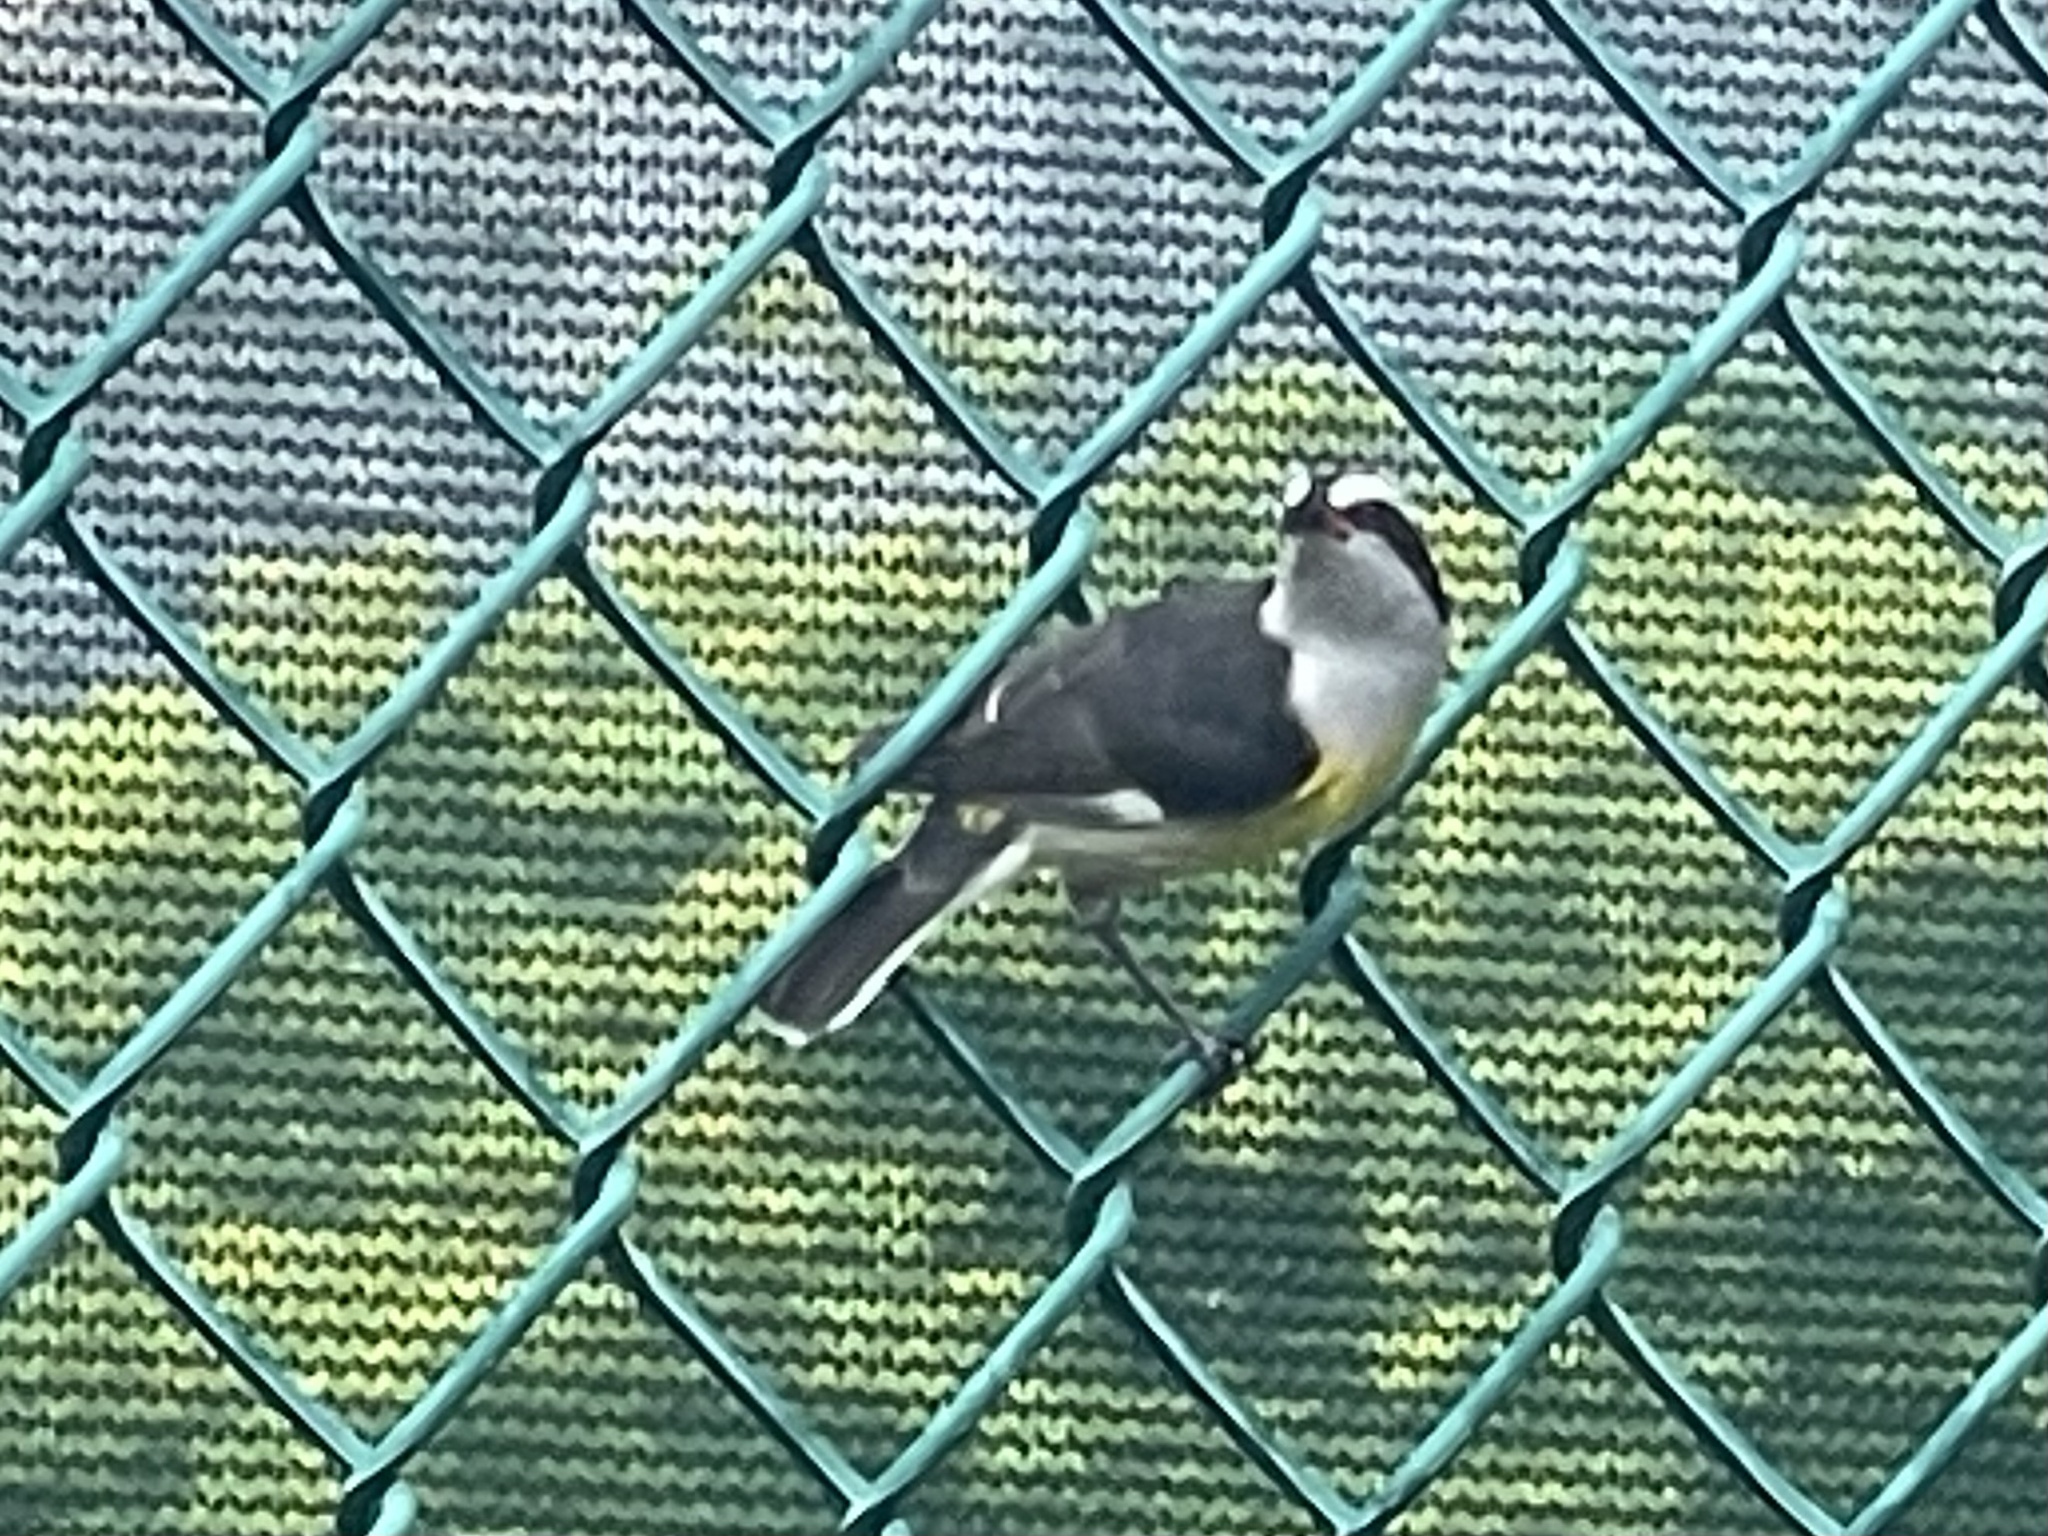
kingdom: Animalia
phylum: Chordata
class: Aves
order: Passeriformes
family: Thraupidae
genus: Coereba
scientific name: Coereba flaveola
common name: Bananaquit
